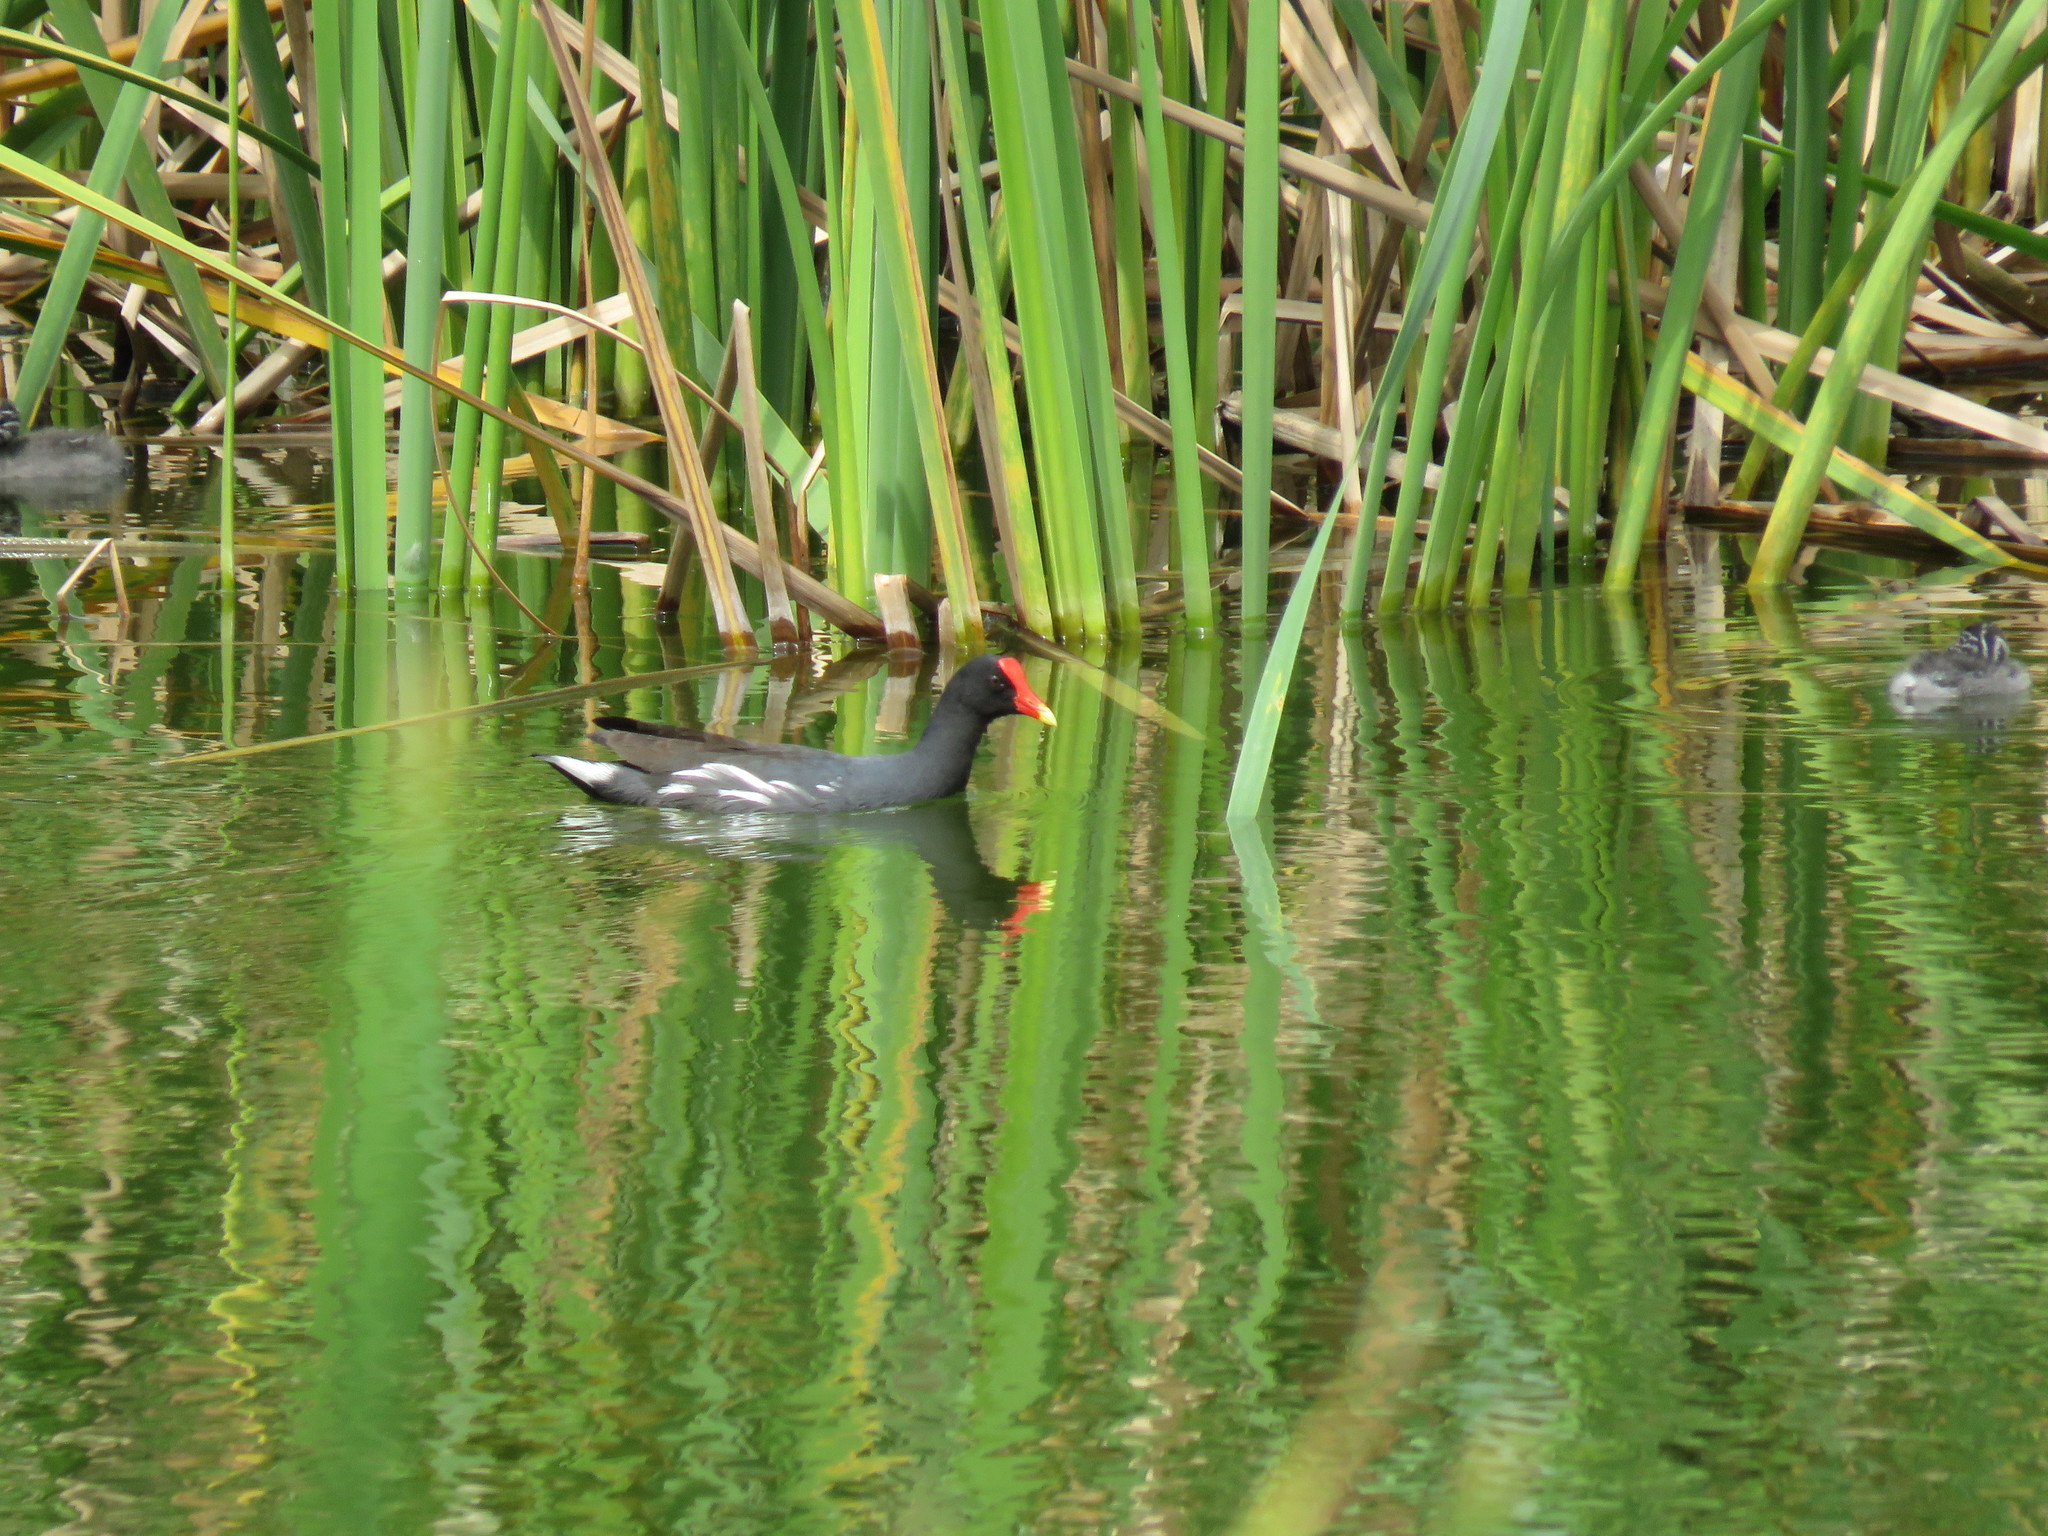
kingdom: Animalia
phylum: Chordata
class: Aves
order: Gruiformes
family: Rallidae
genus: Gallinula
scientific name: Gallinula chloropus
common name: Common moorhen
